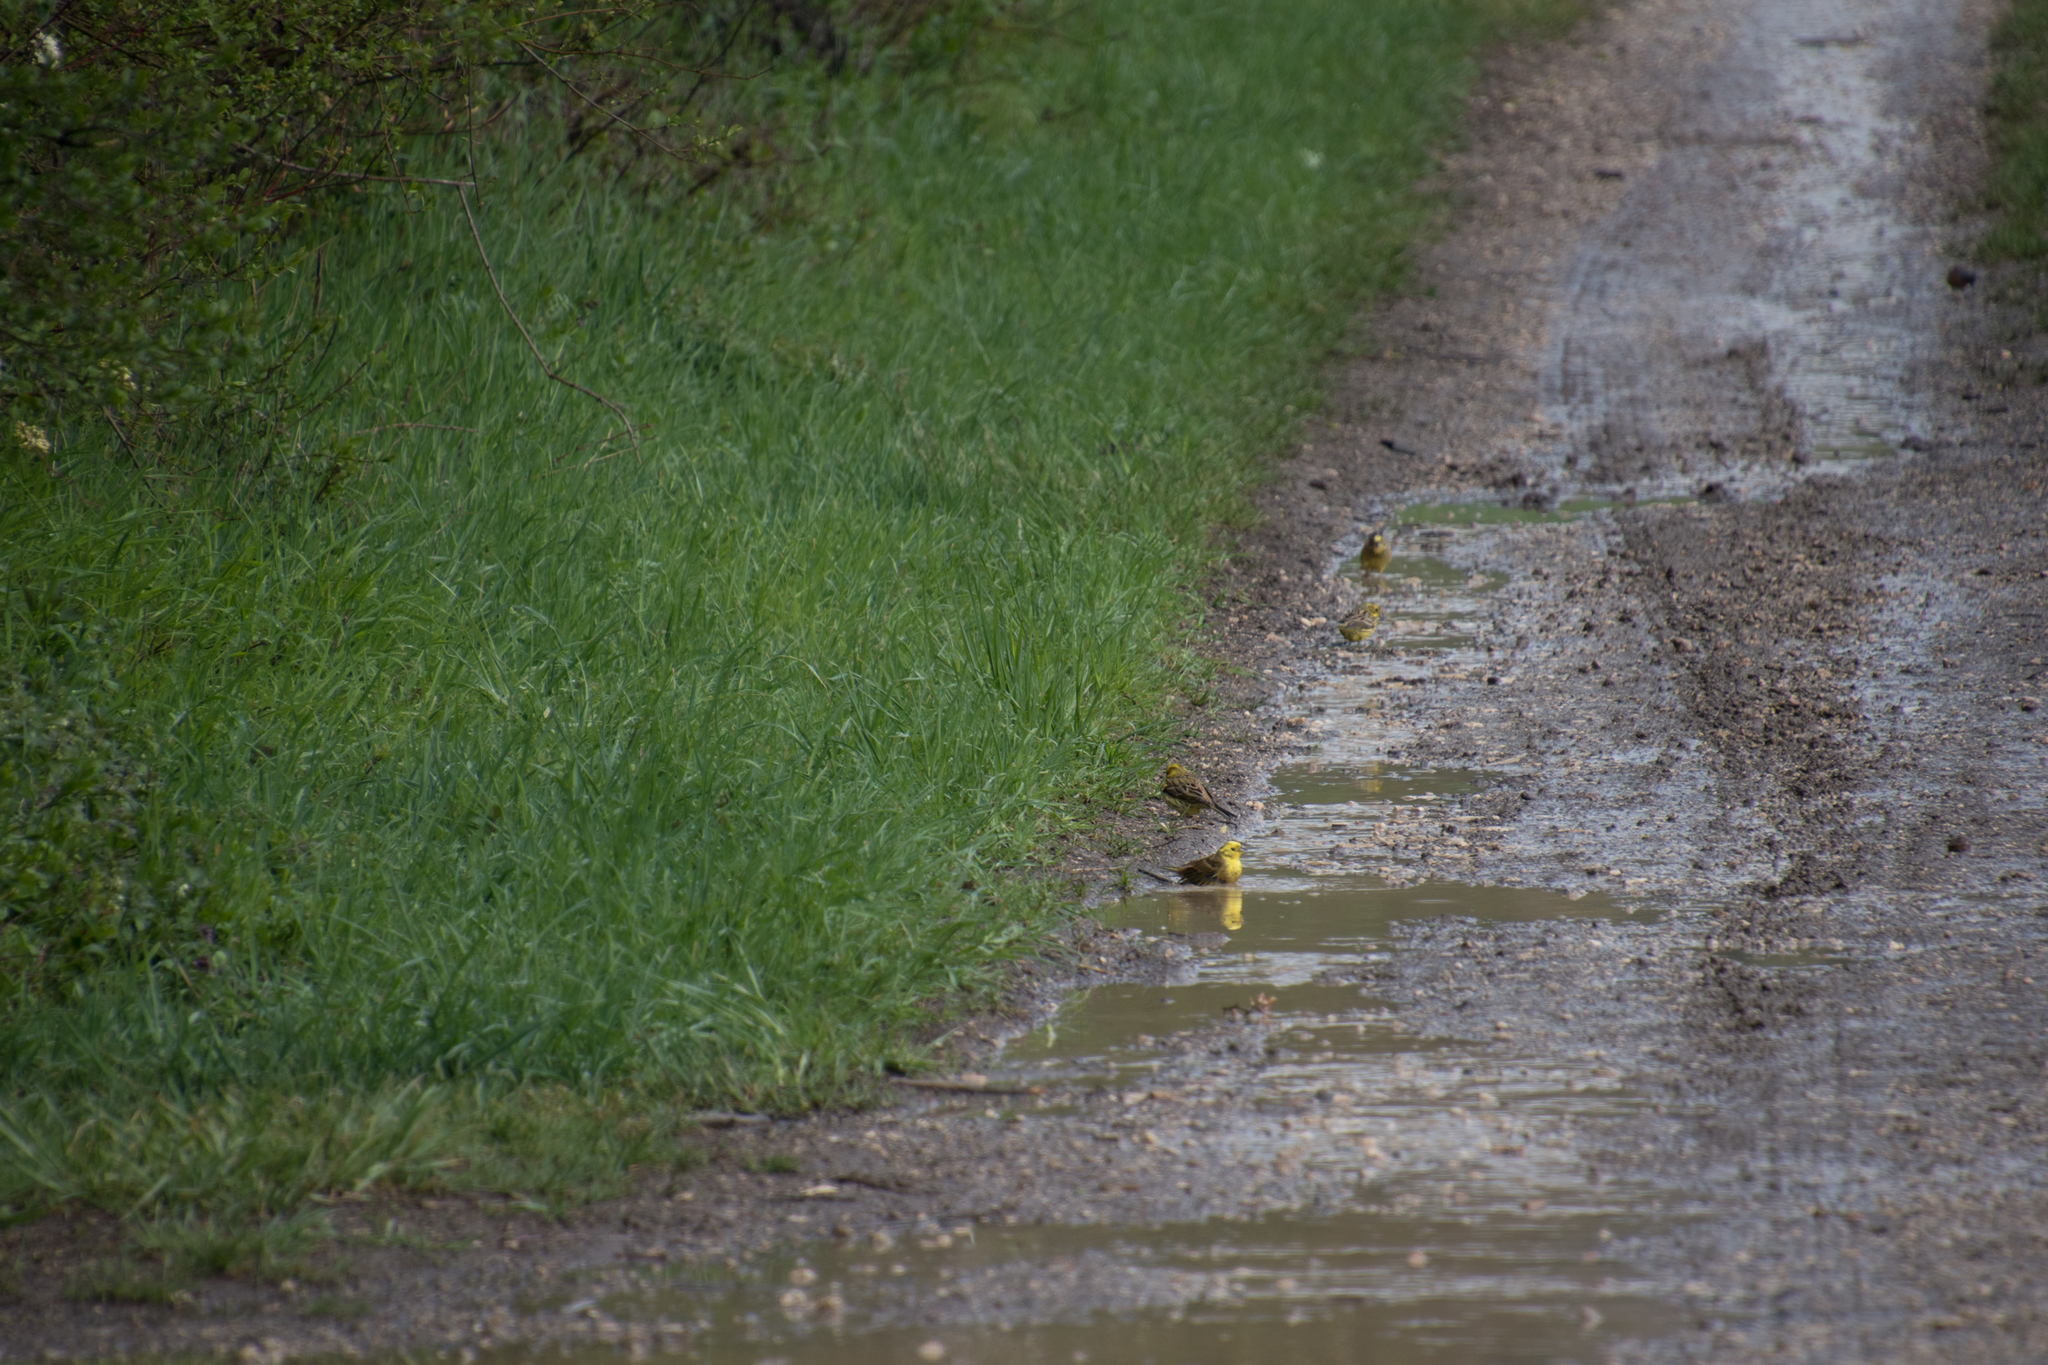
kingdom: Animalia
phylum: Chordata
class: Aves
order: Passeriformes
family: Emberizidae
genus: Emberiza
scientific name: Emberiza citrinella
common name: Yellowhammer
